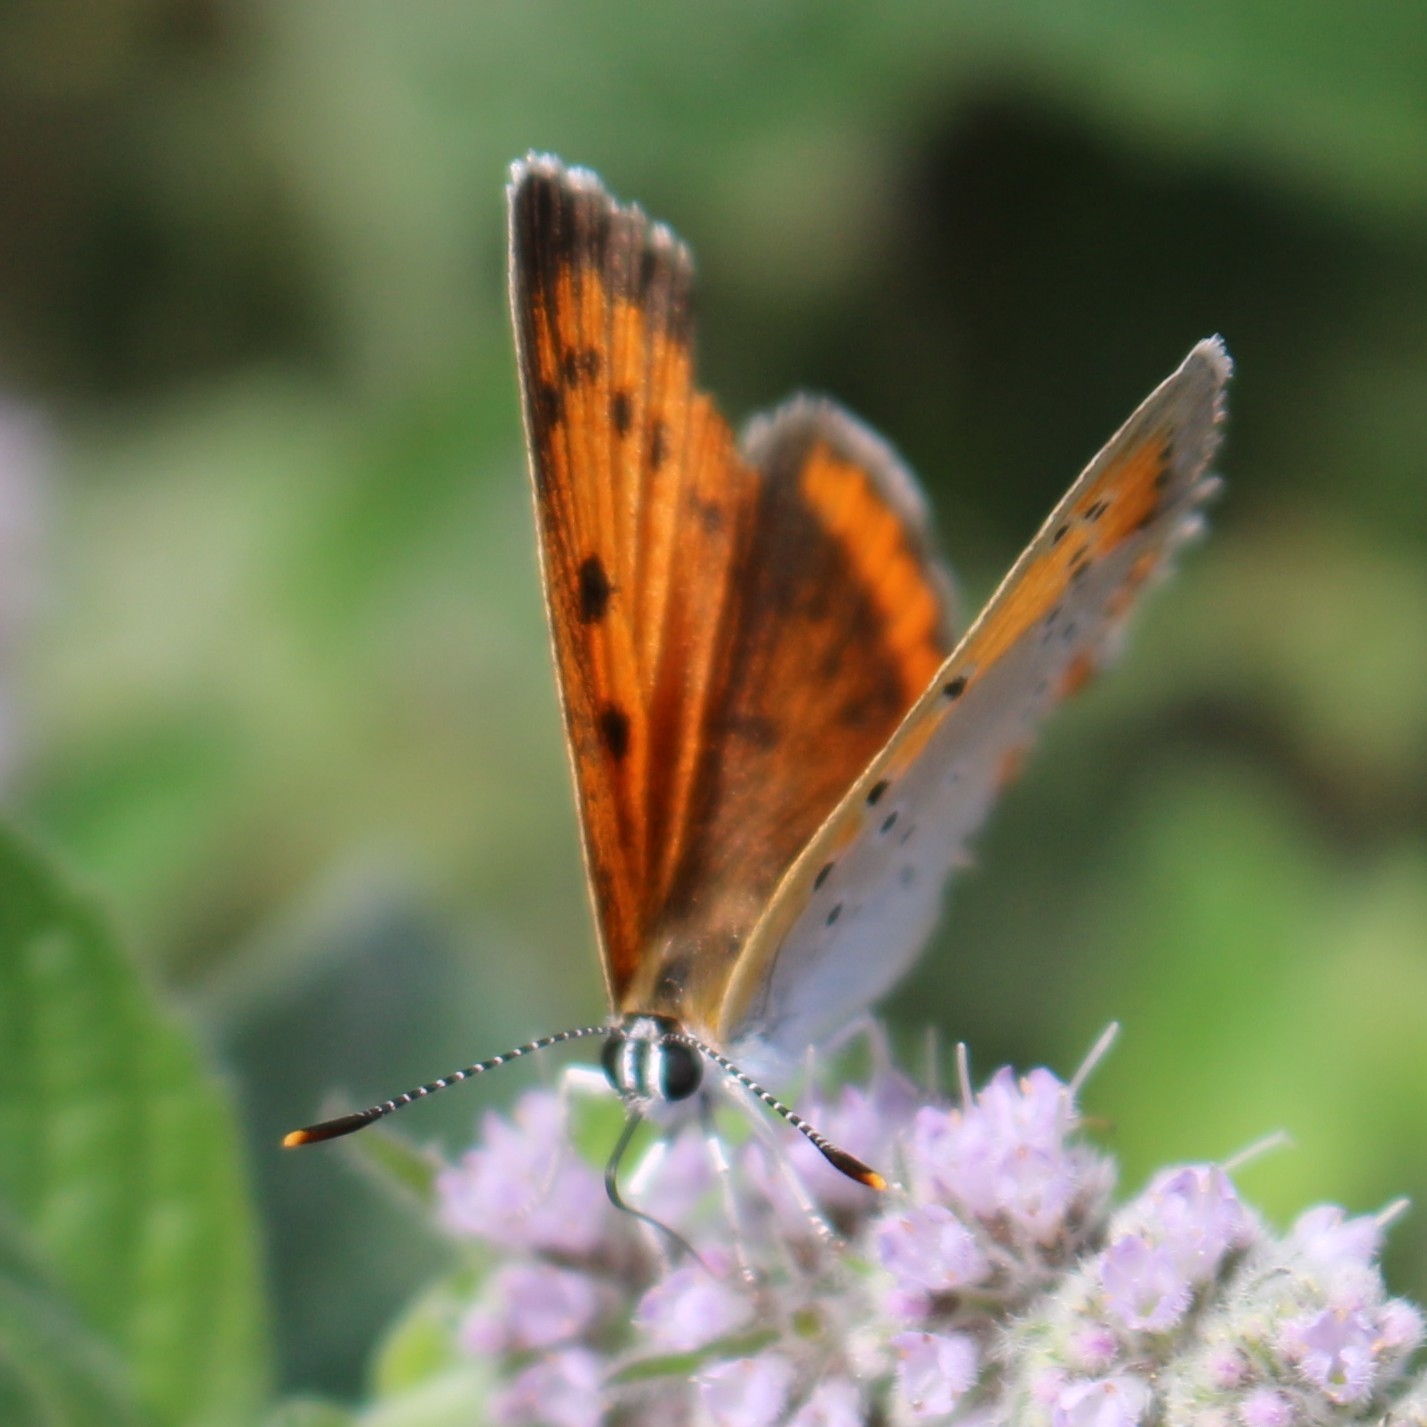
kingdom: Animalia
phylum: Arthropoda
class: Insecta
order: Lepidoptera
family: Lycaenidae
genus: Lycaena
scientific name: Lycaena dispar
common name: Large copper
